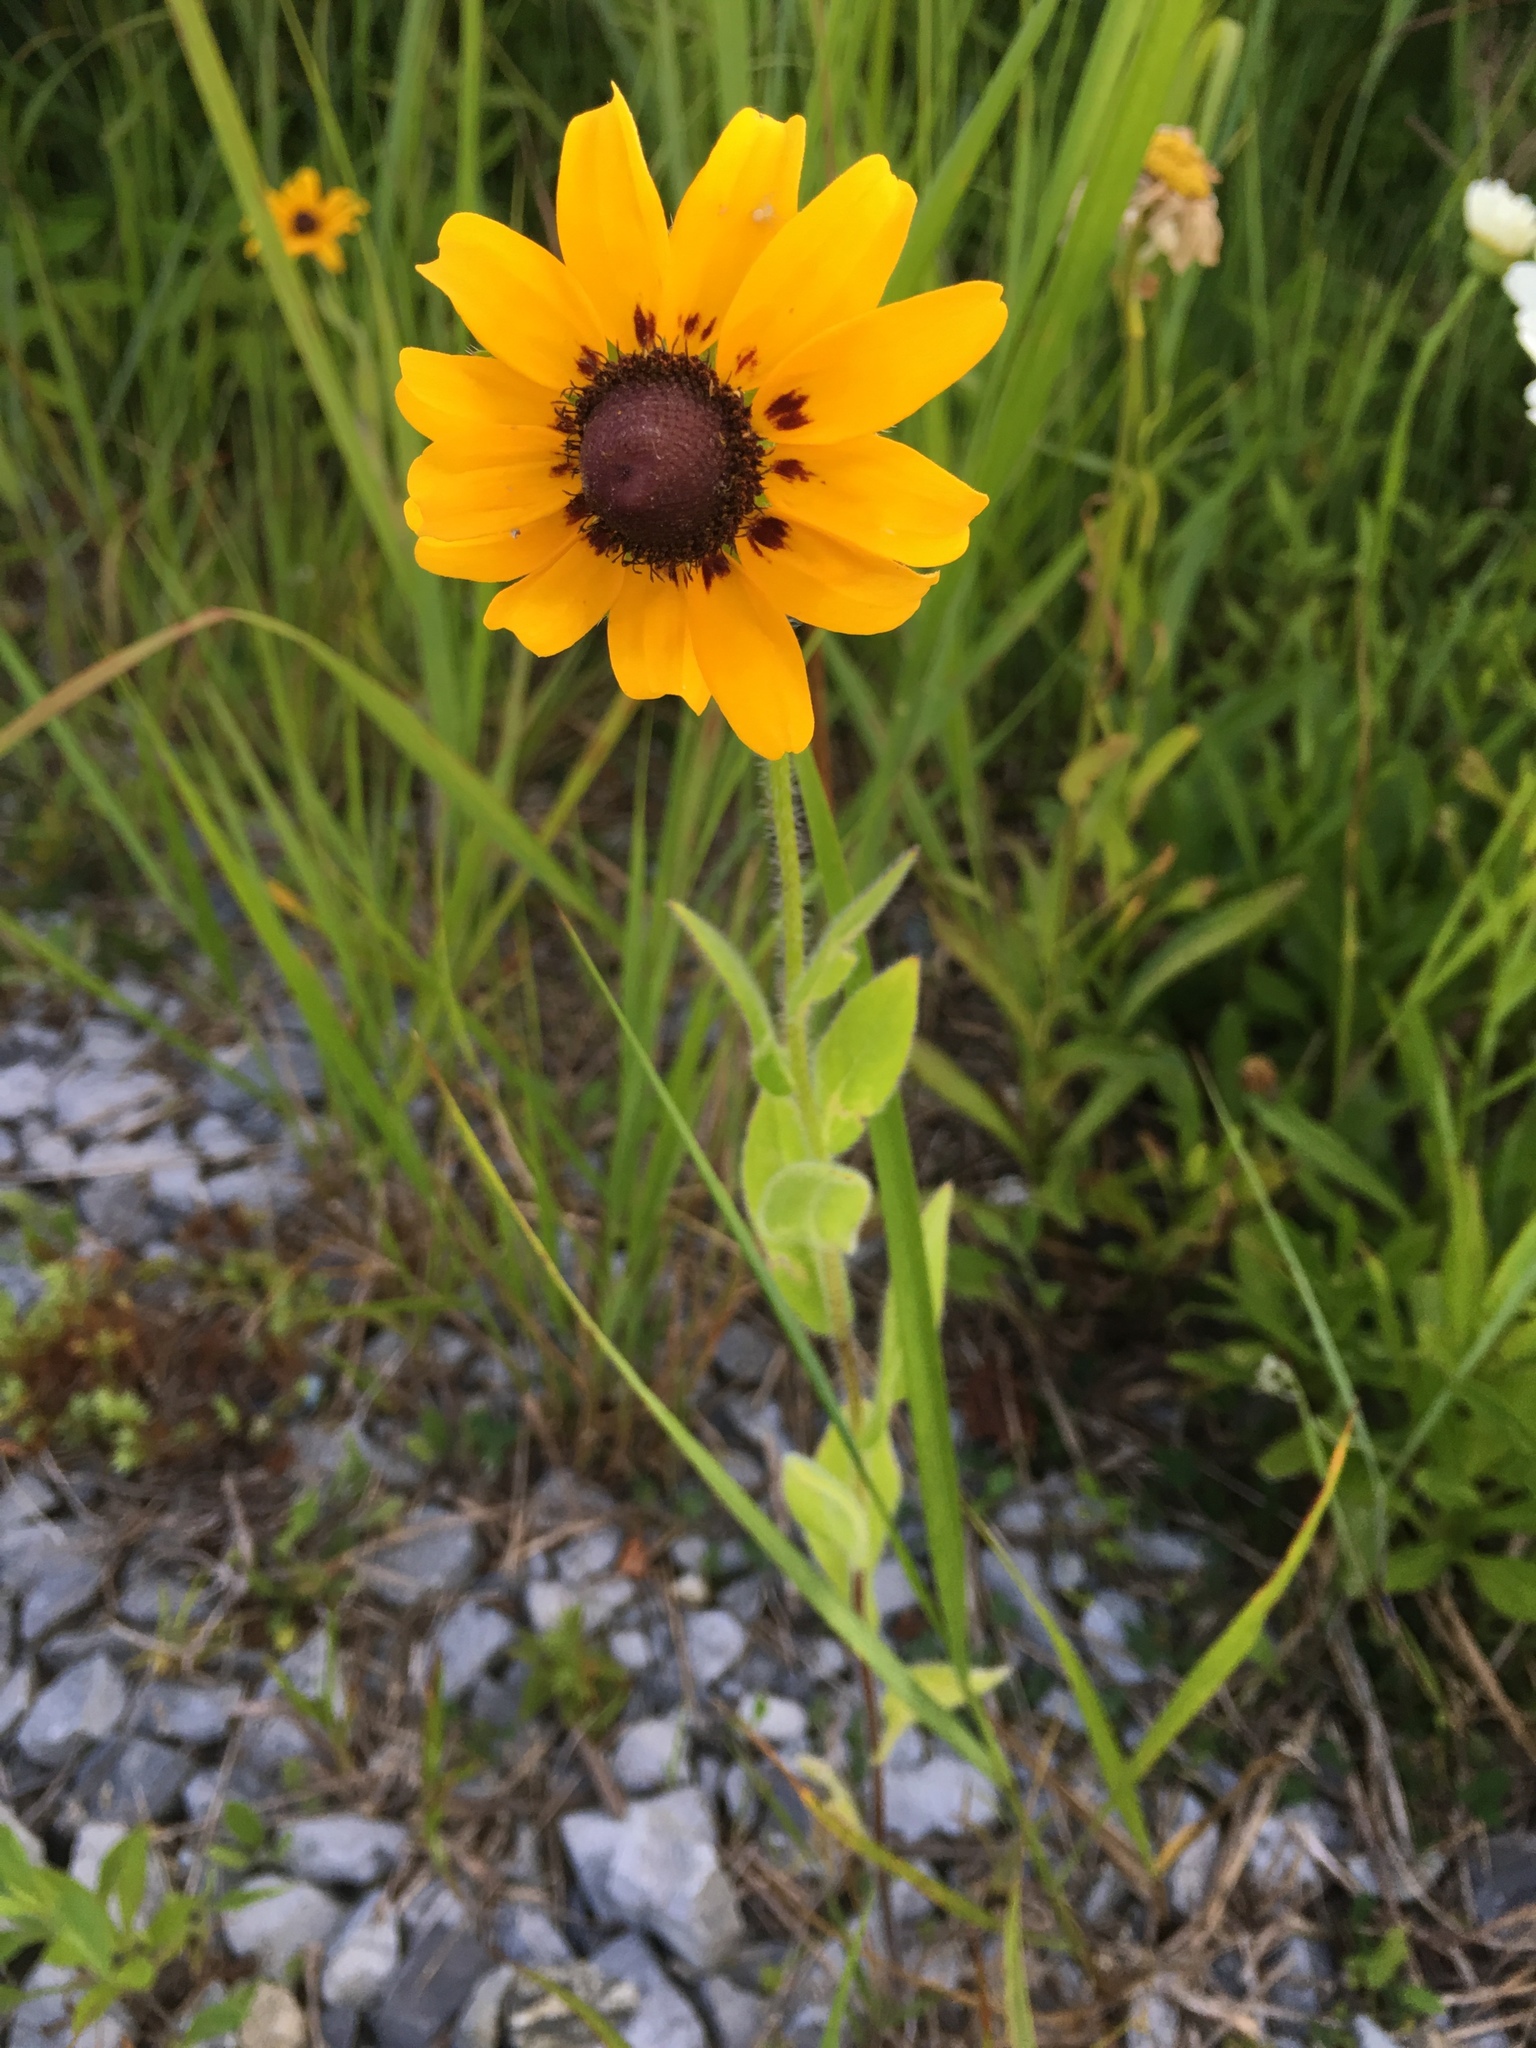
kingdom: Plantae
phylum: Tracheophyta
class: Magnoliopsida
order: Asterales
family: Asteraceae
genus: Rudbeckia
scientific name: Rudbeckia hirta
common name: Black-eyed-susan
